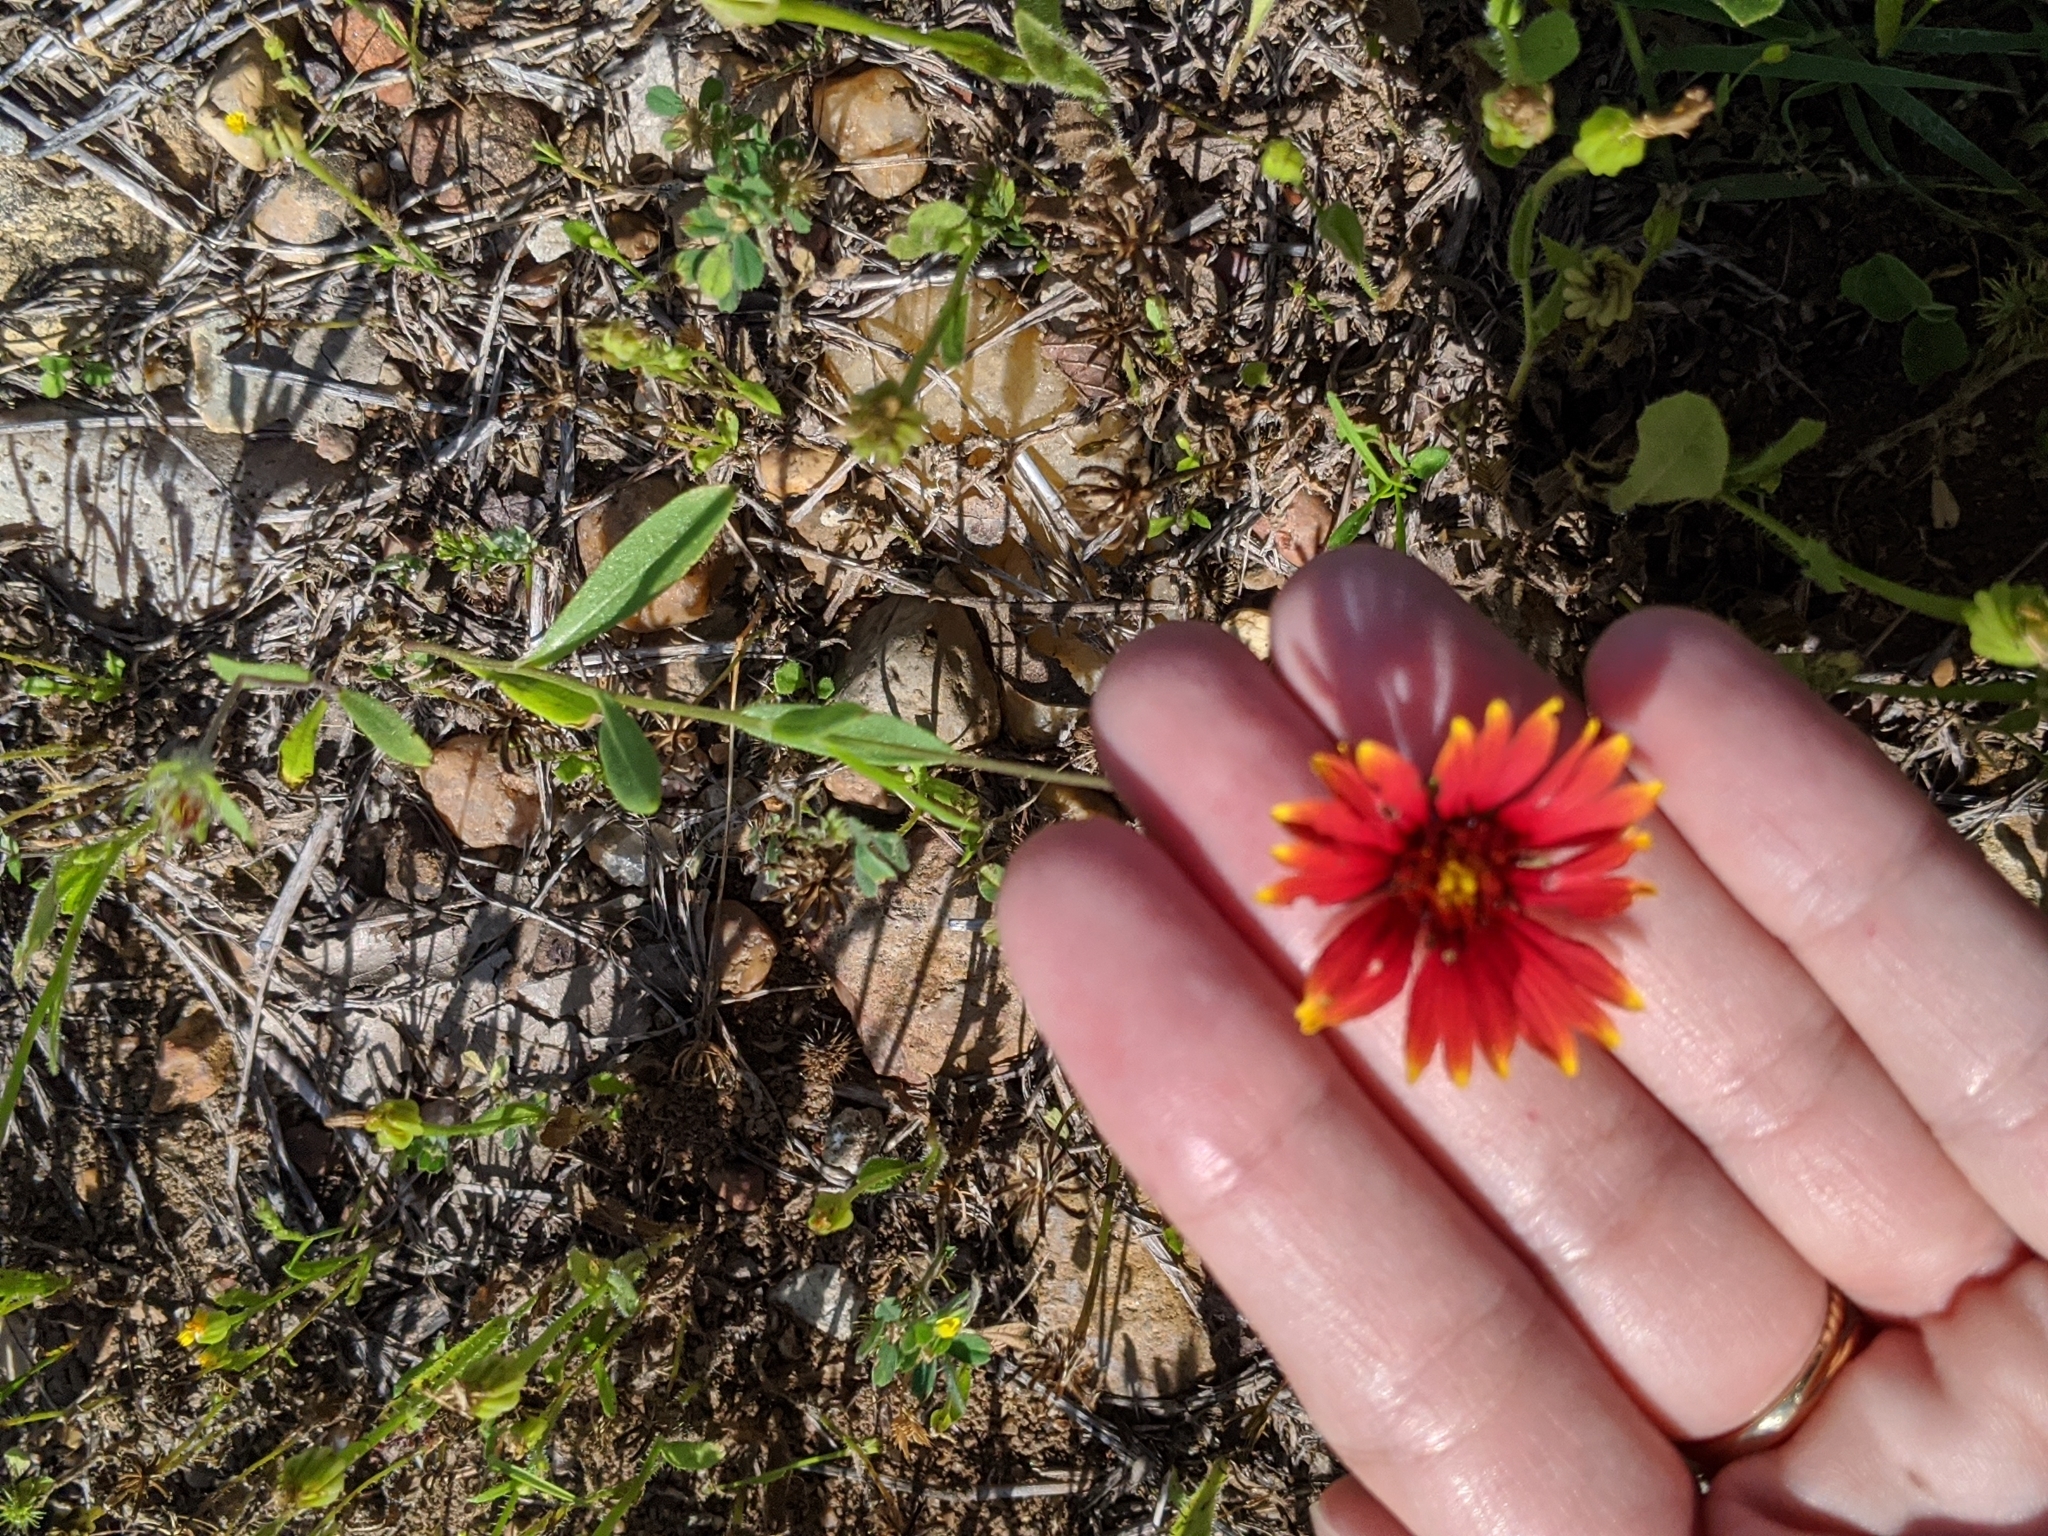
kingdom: Plantae
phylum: Tracheophyta
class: Magnoliopsida
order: Asterales
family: Asteraceae
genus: Gaillardia
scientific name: Gaillardia pulchella
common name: Firewheel
